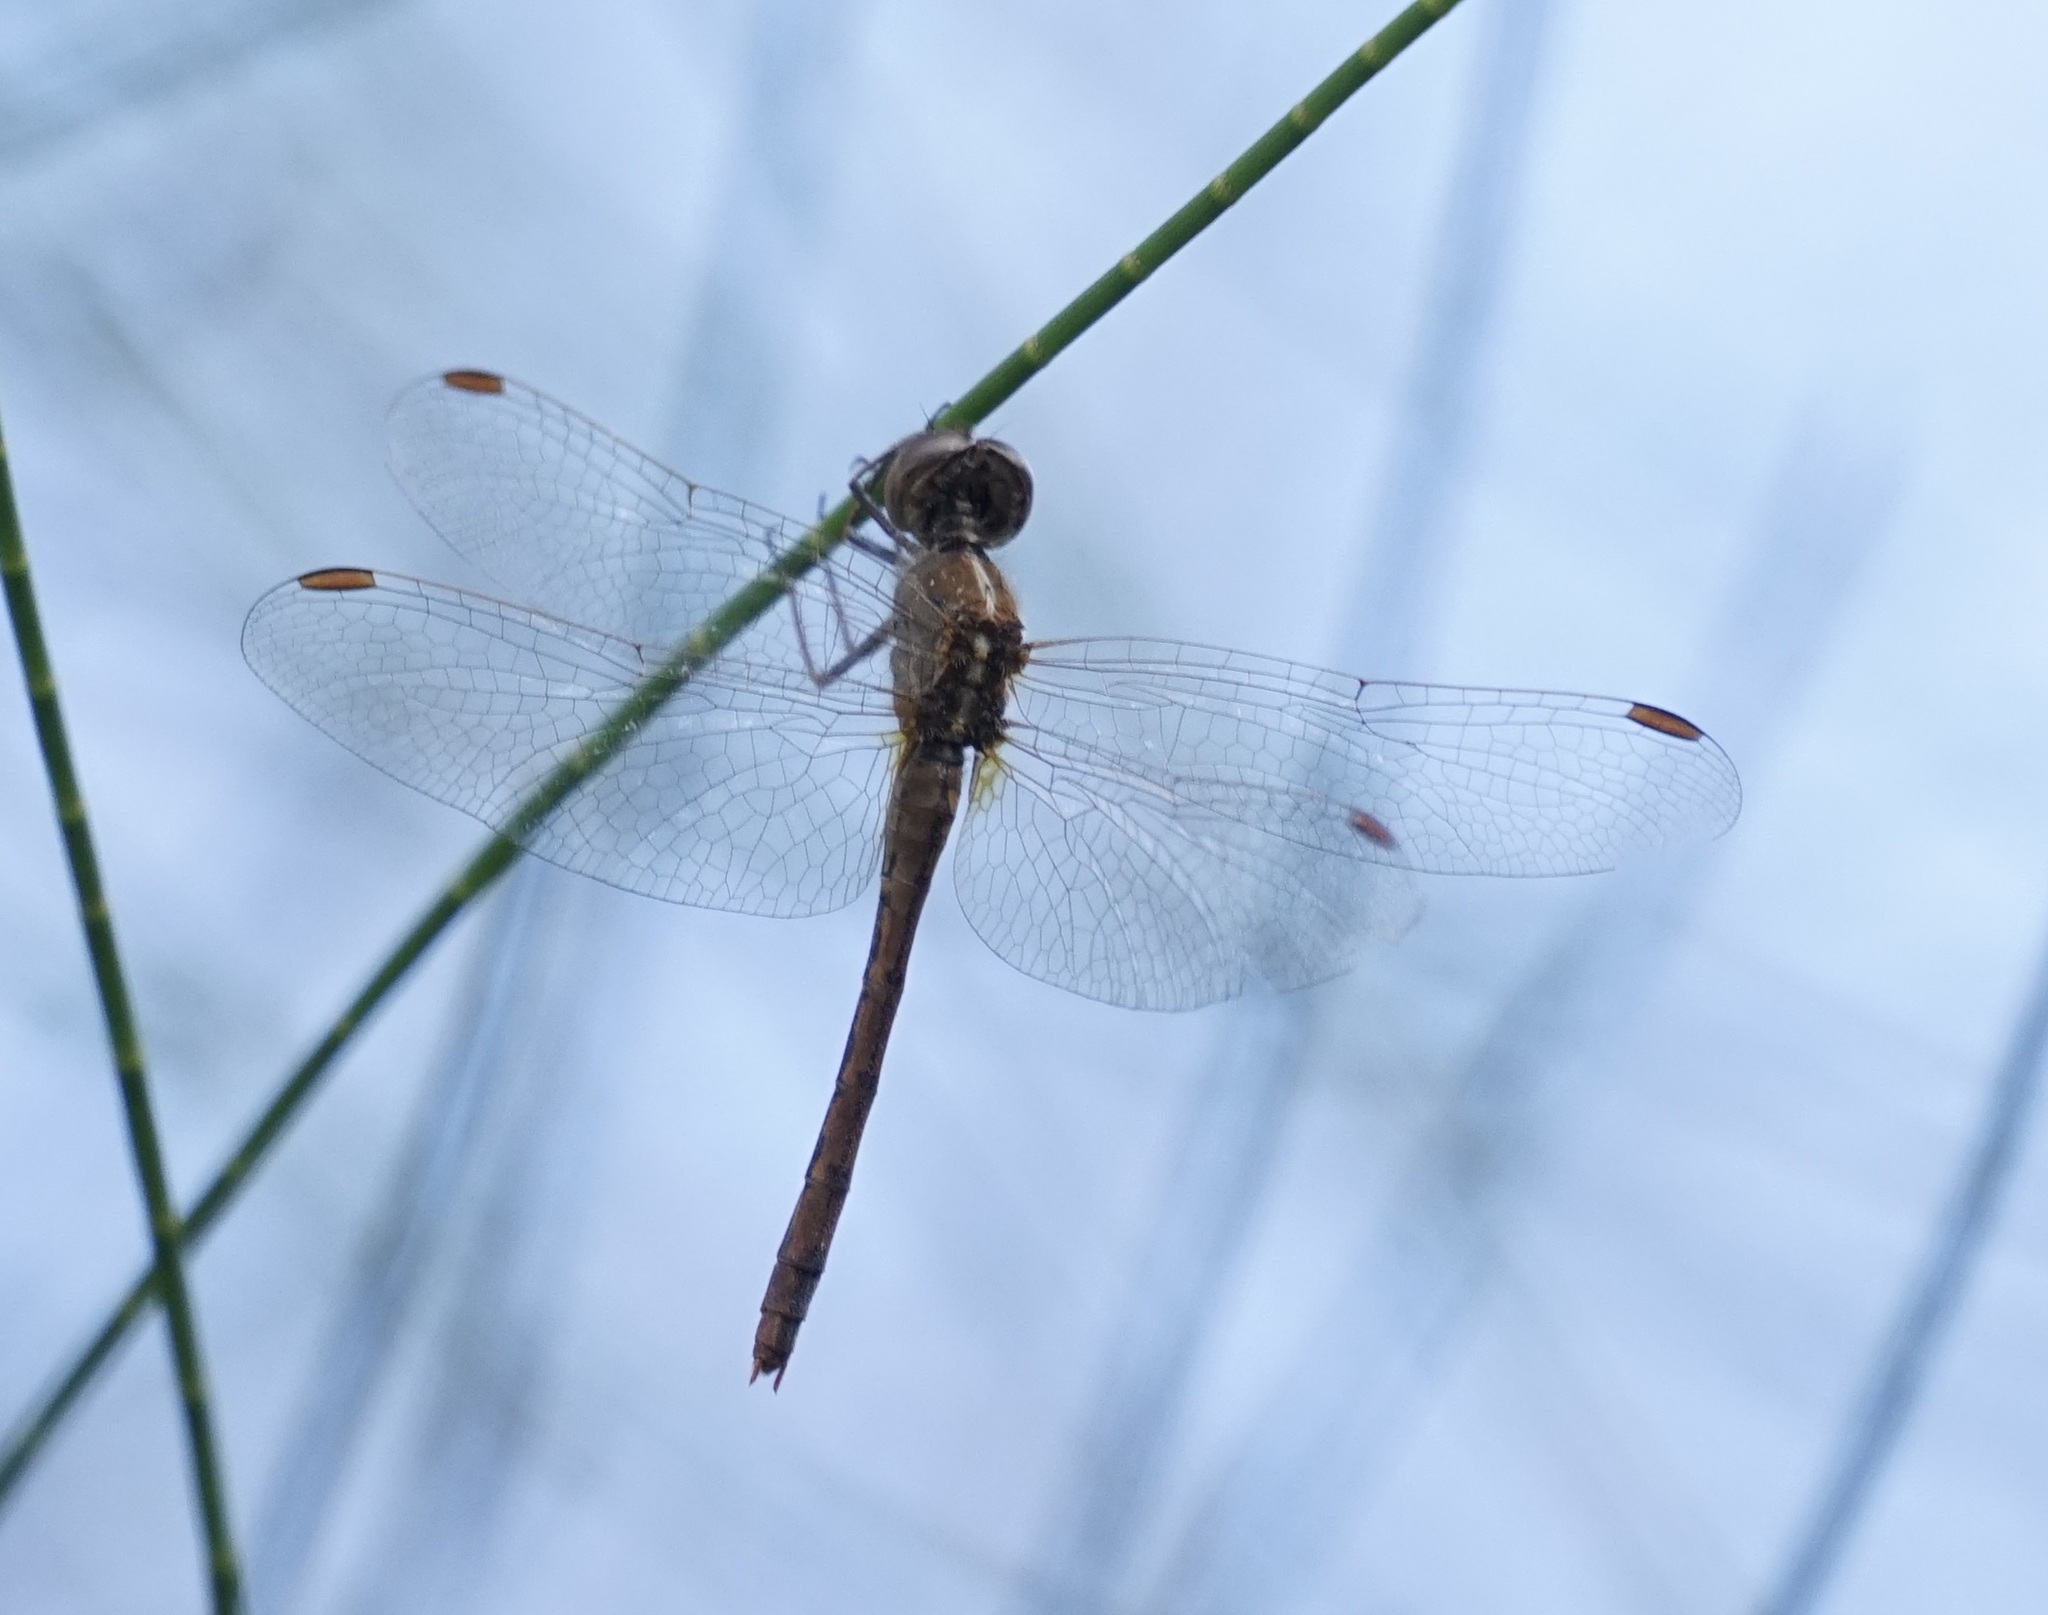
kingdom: Animalia
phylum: Arthropoda
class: Insecta
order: Odonata
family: Libellulidae
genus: Diplacodes
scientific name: Diplacodes bipunctata
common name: Red percher dragonfly
